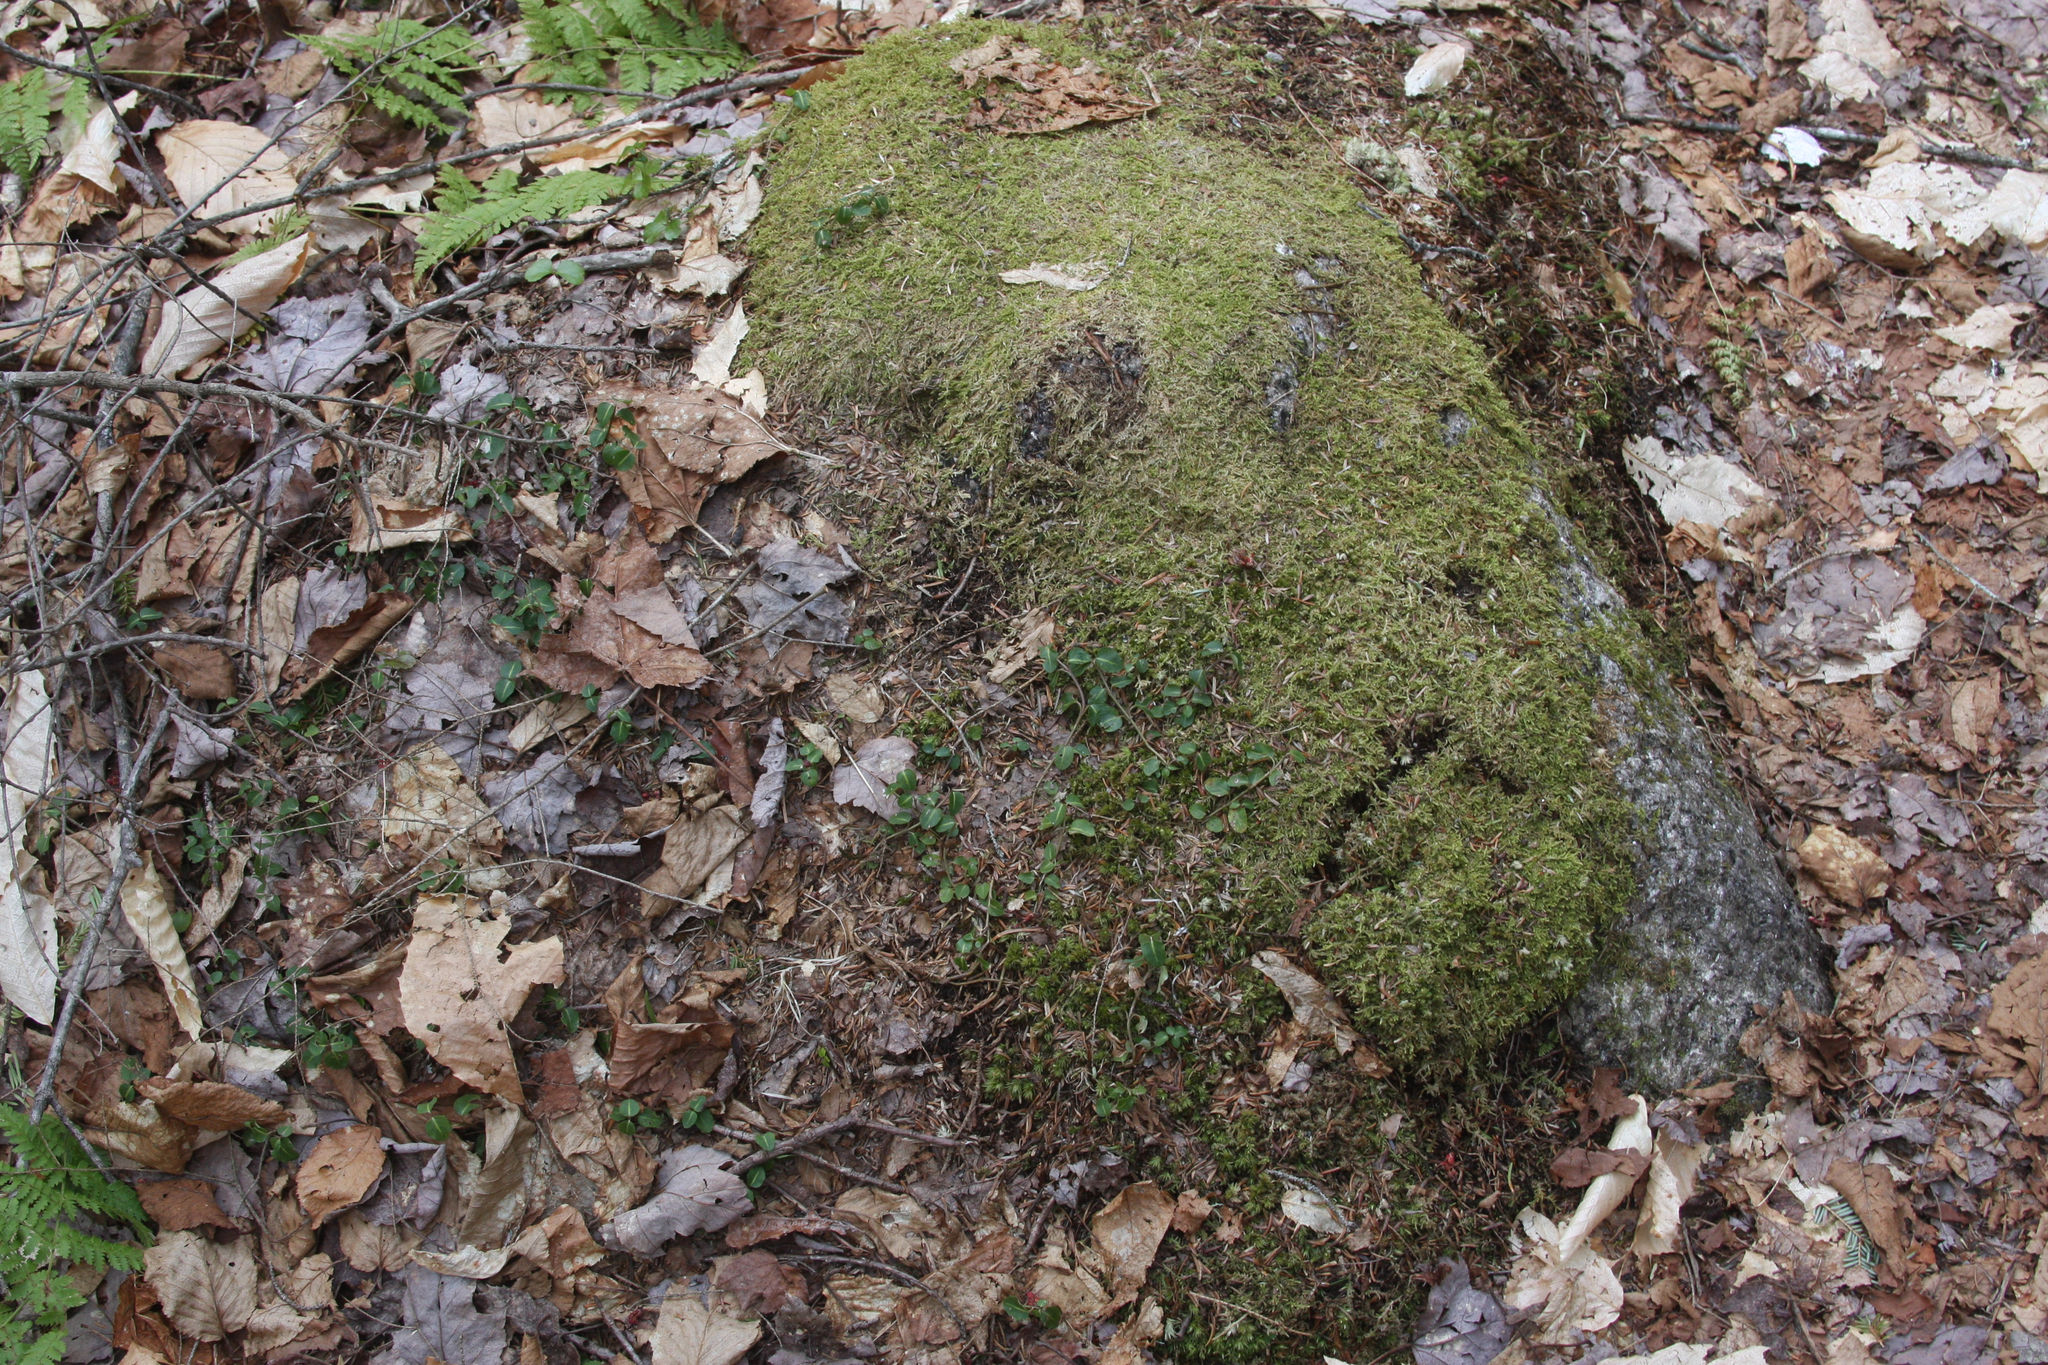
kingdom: Plantae
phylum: Tracheophyta
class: Magnoliopsida
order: Gentianales
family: Rubiaceae
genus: Mitchella
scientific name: Mitchella repens
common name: Partridge-berry
